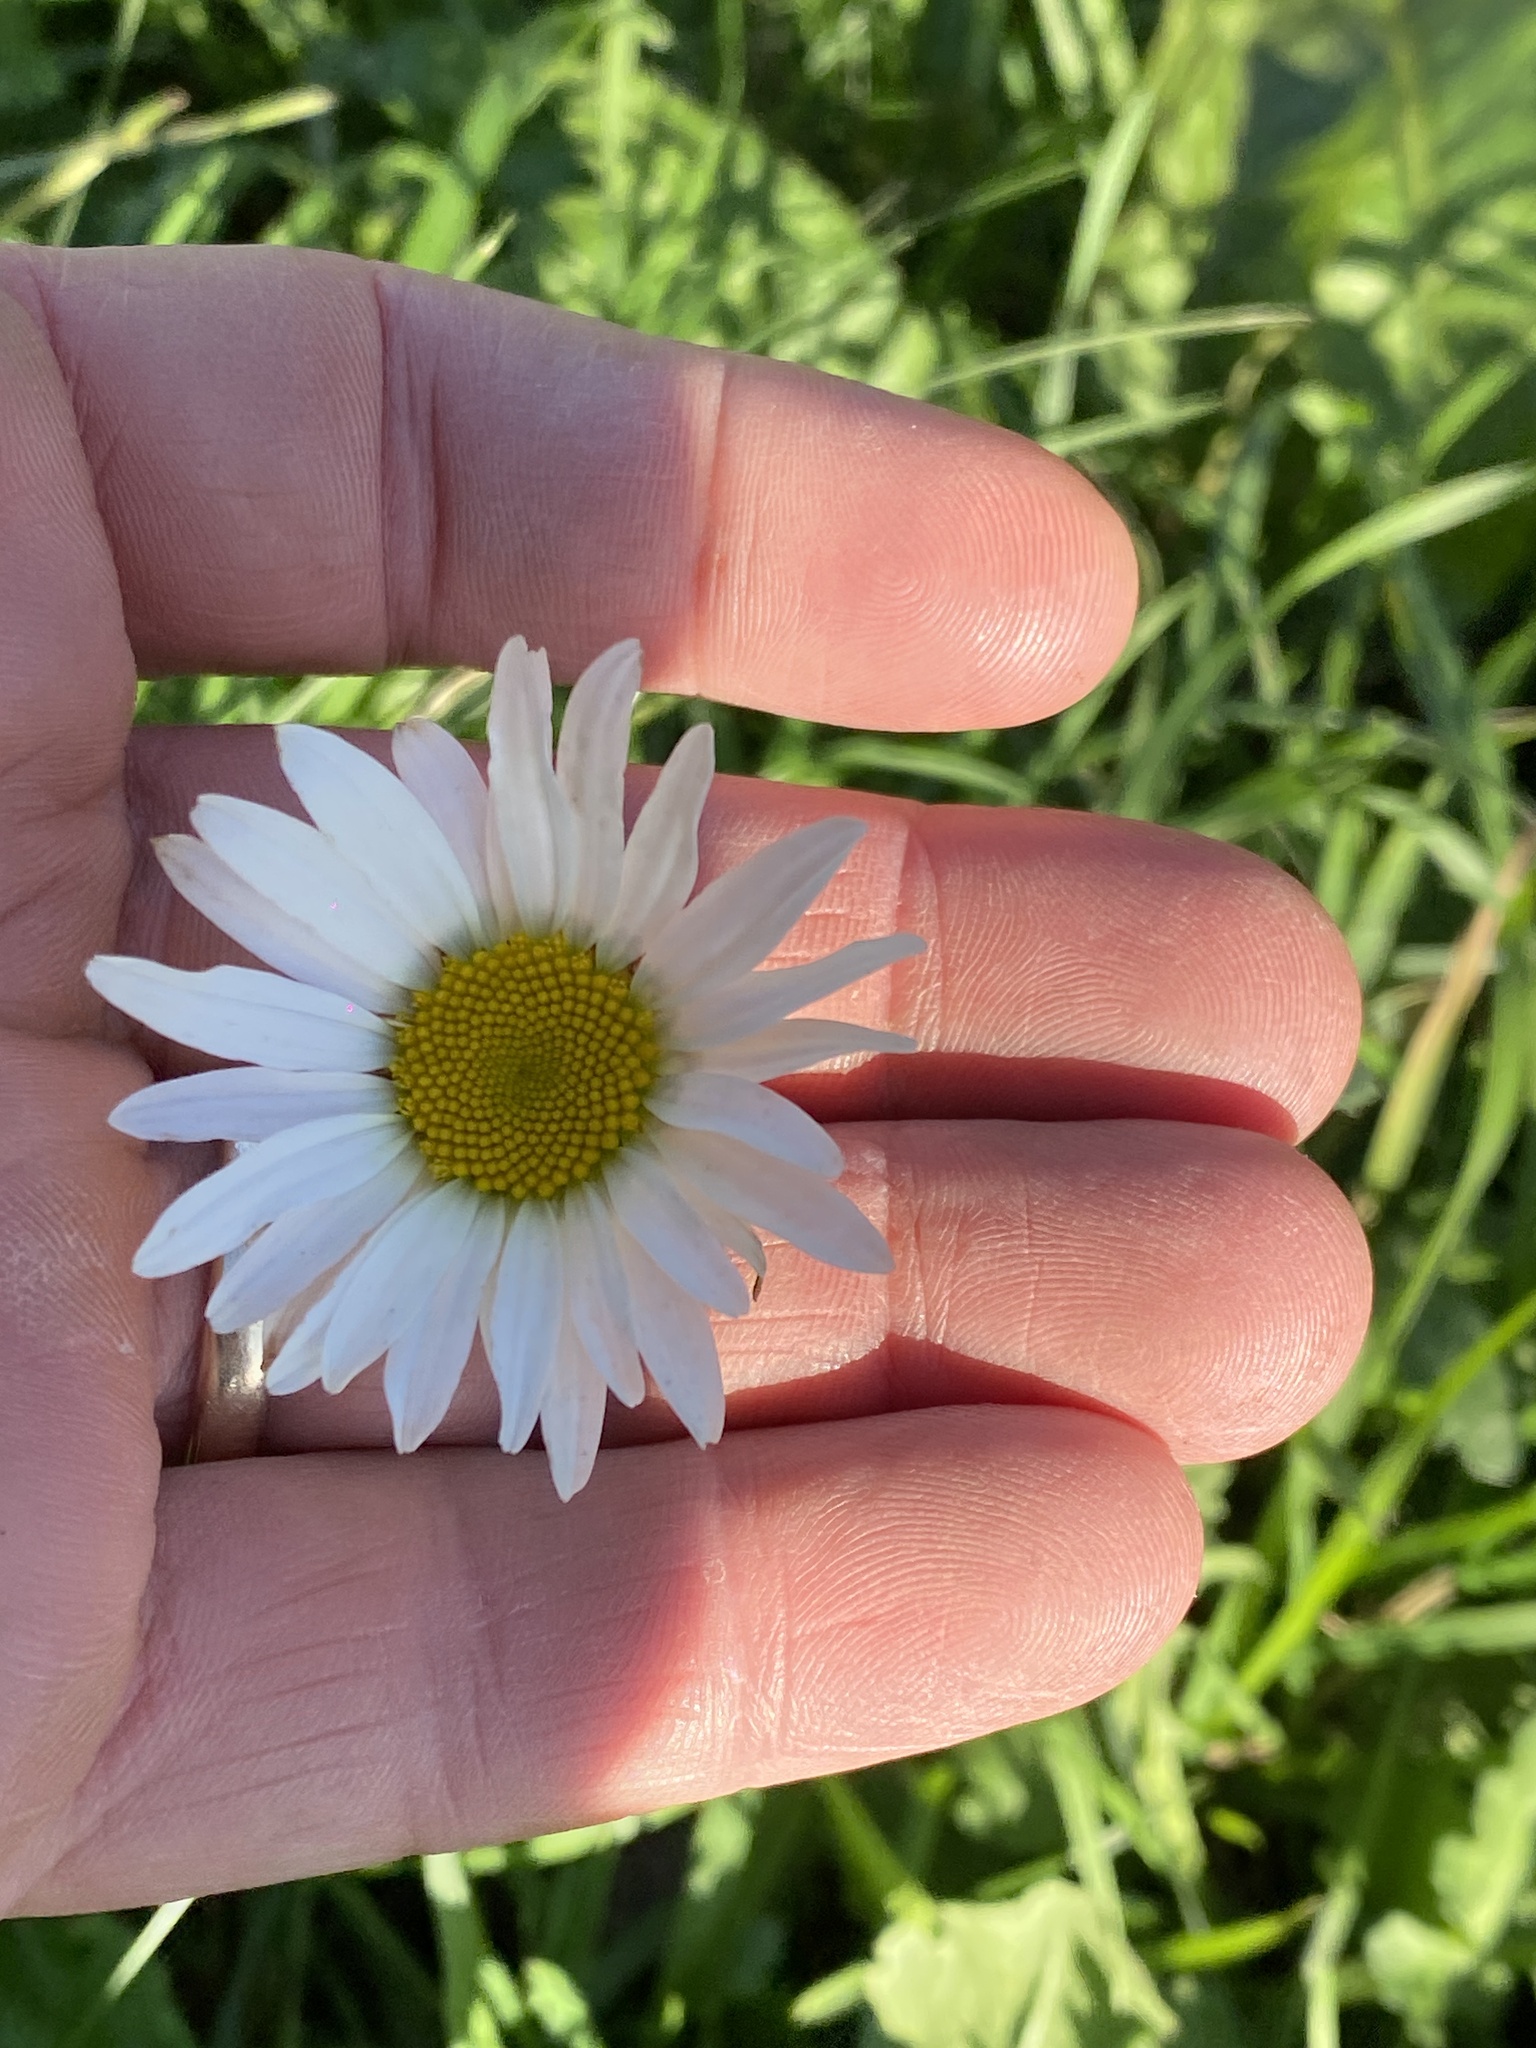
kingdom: Plantae
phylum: Tracheophyta
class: Magnoliopsida
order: Asterales
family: Asteraceae
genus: Leucanthemum
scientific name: Leucanthemum vulgare
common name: Oxeye daisy
